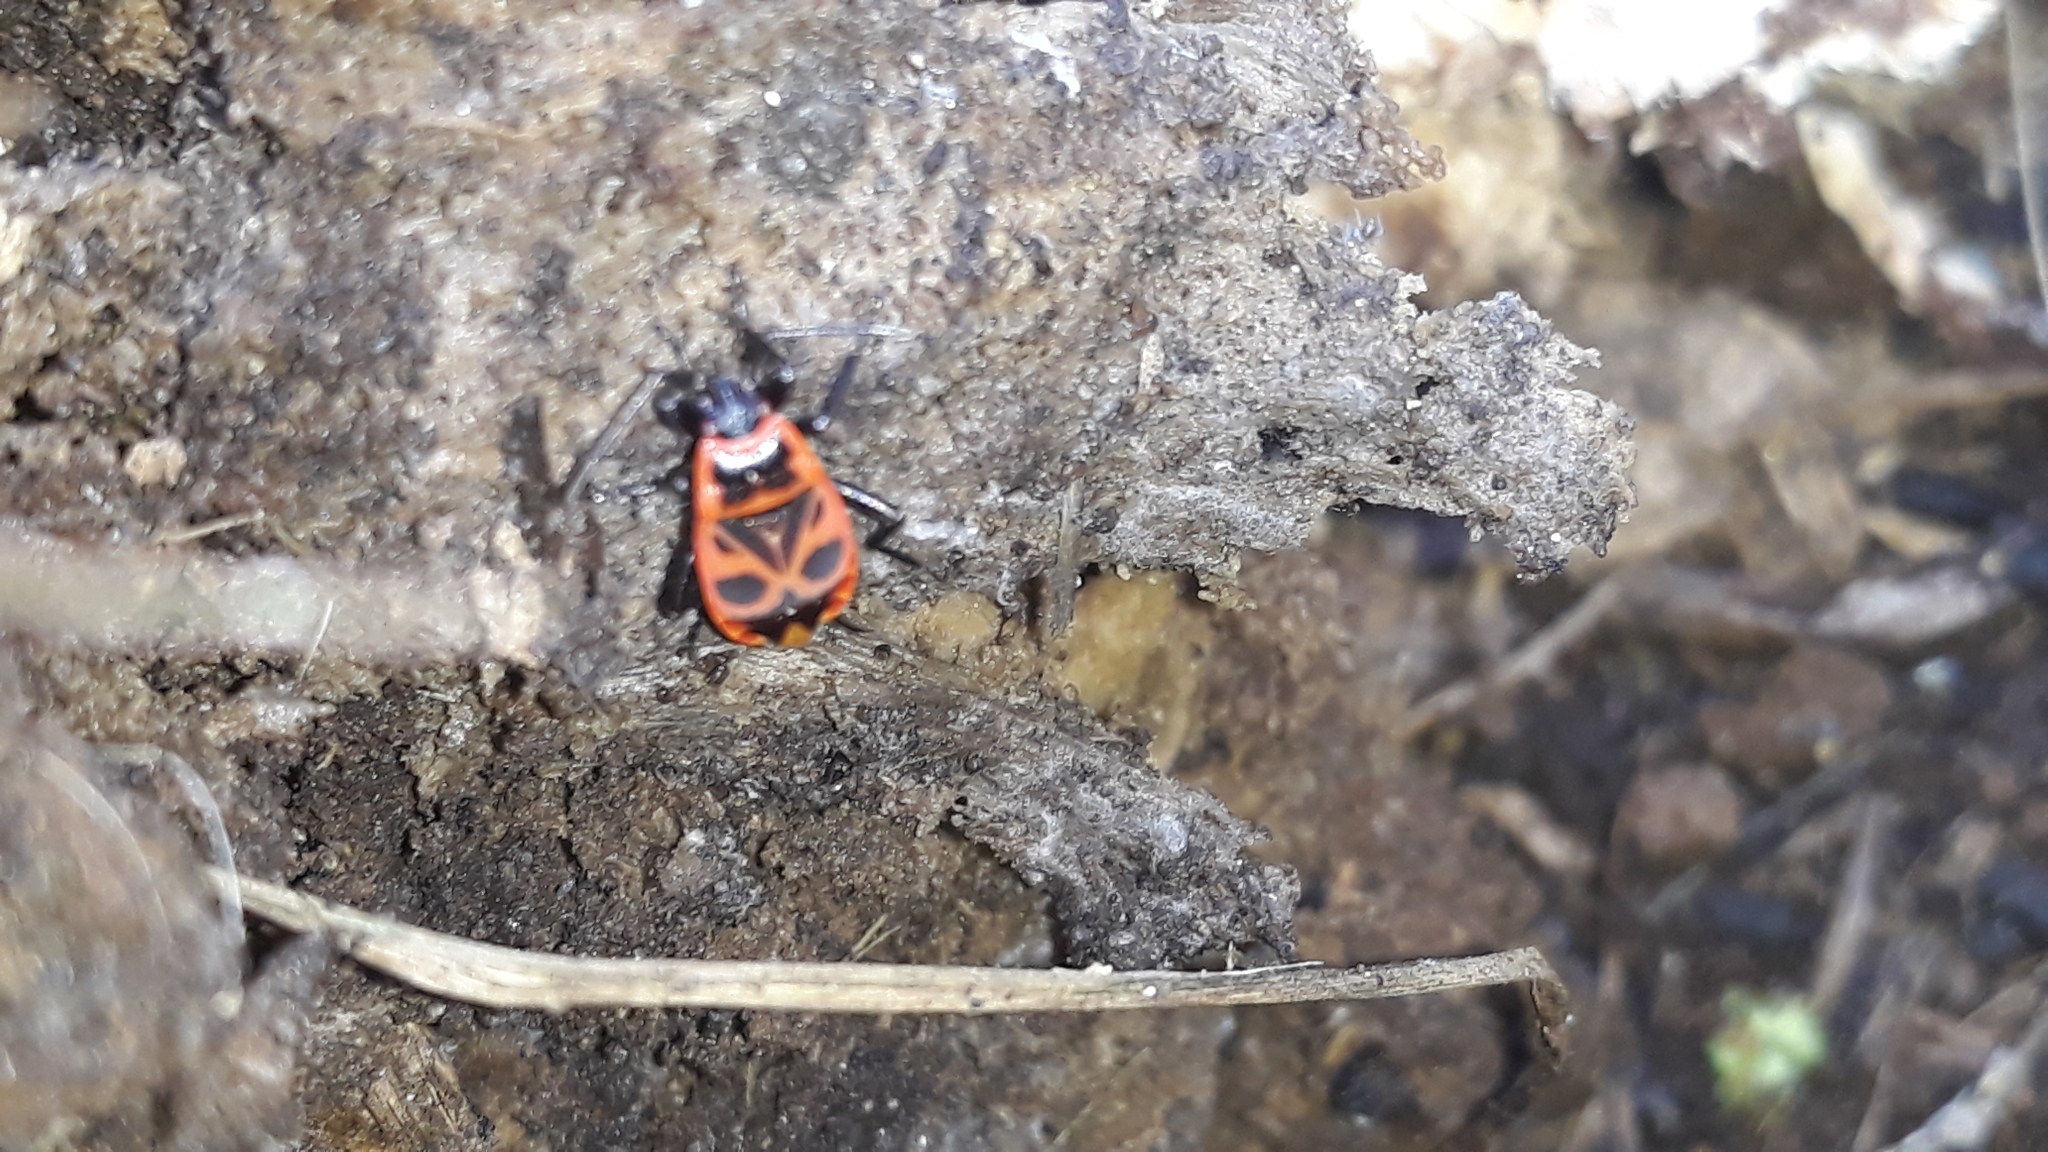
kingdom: Animalia
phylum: Arthropoda
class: Insecta
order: Hemiptera
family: Pyrrhocoridae
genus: Pyrrhocoris
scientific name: Pyrrhocoris apterus
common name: Firebug
